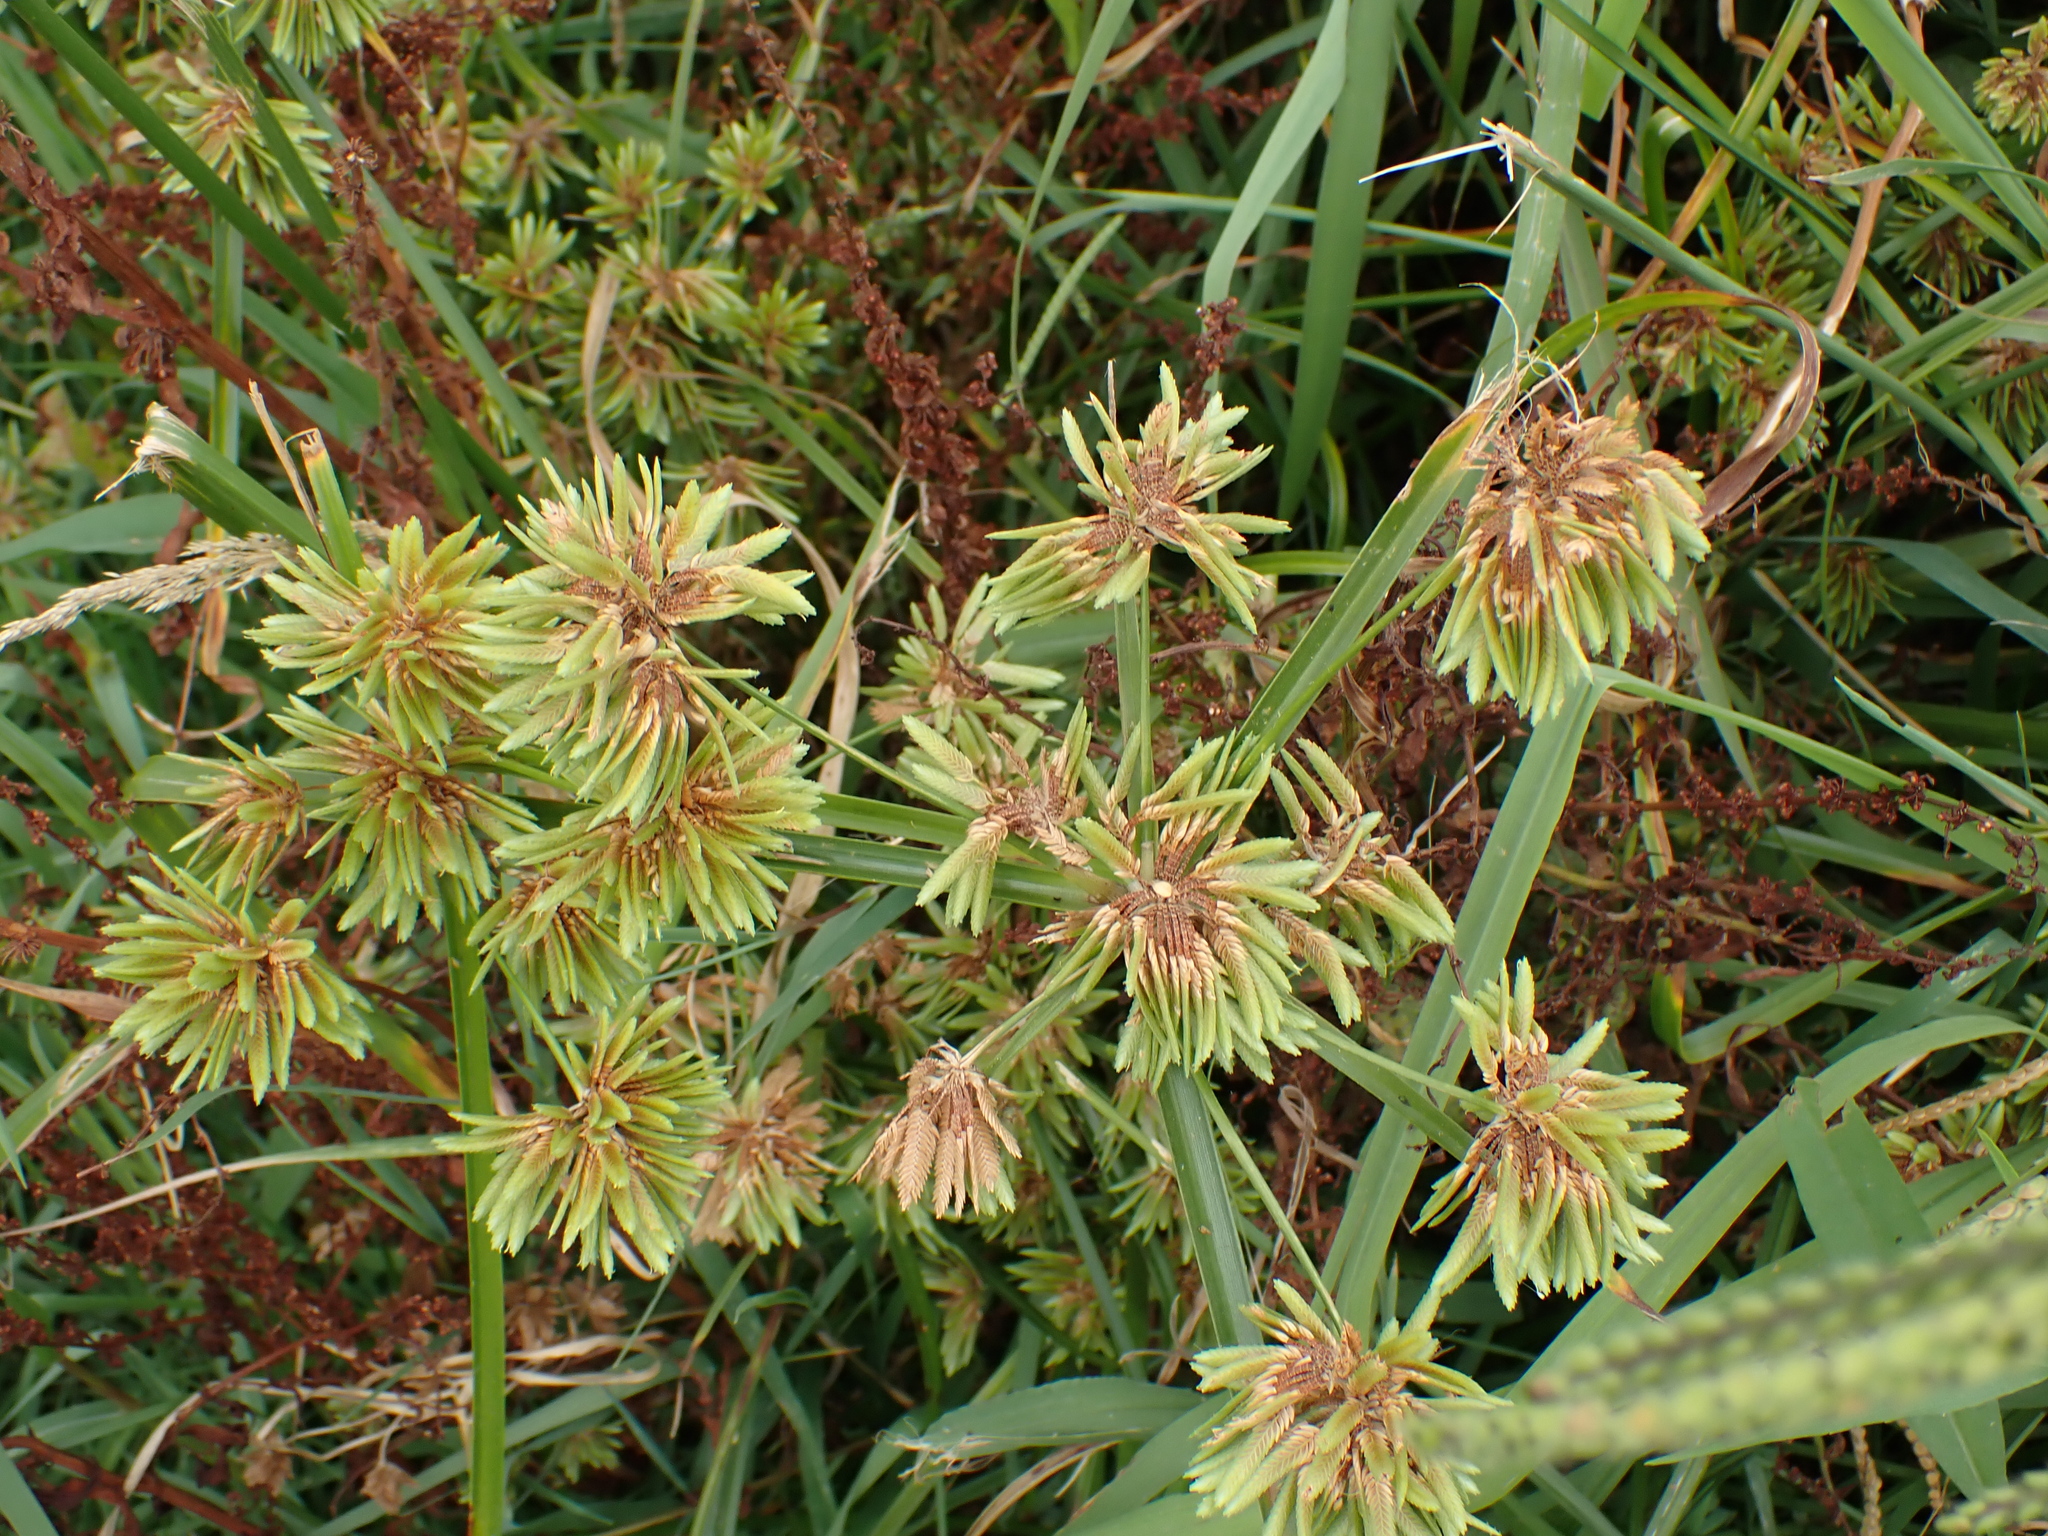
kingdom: Plantae
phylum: Tracheophyta
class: Liliopsida
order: Poales
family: Cyperaceae
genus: Cyperus
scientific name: Cyperus eragrostis
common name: Tall flatsedge
